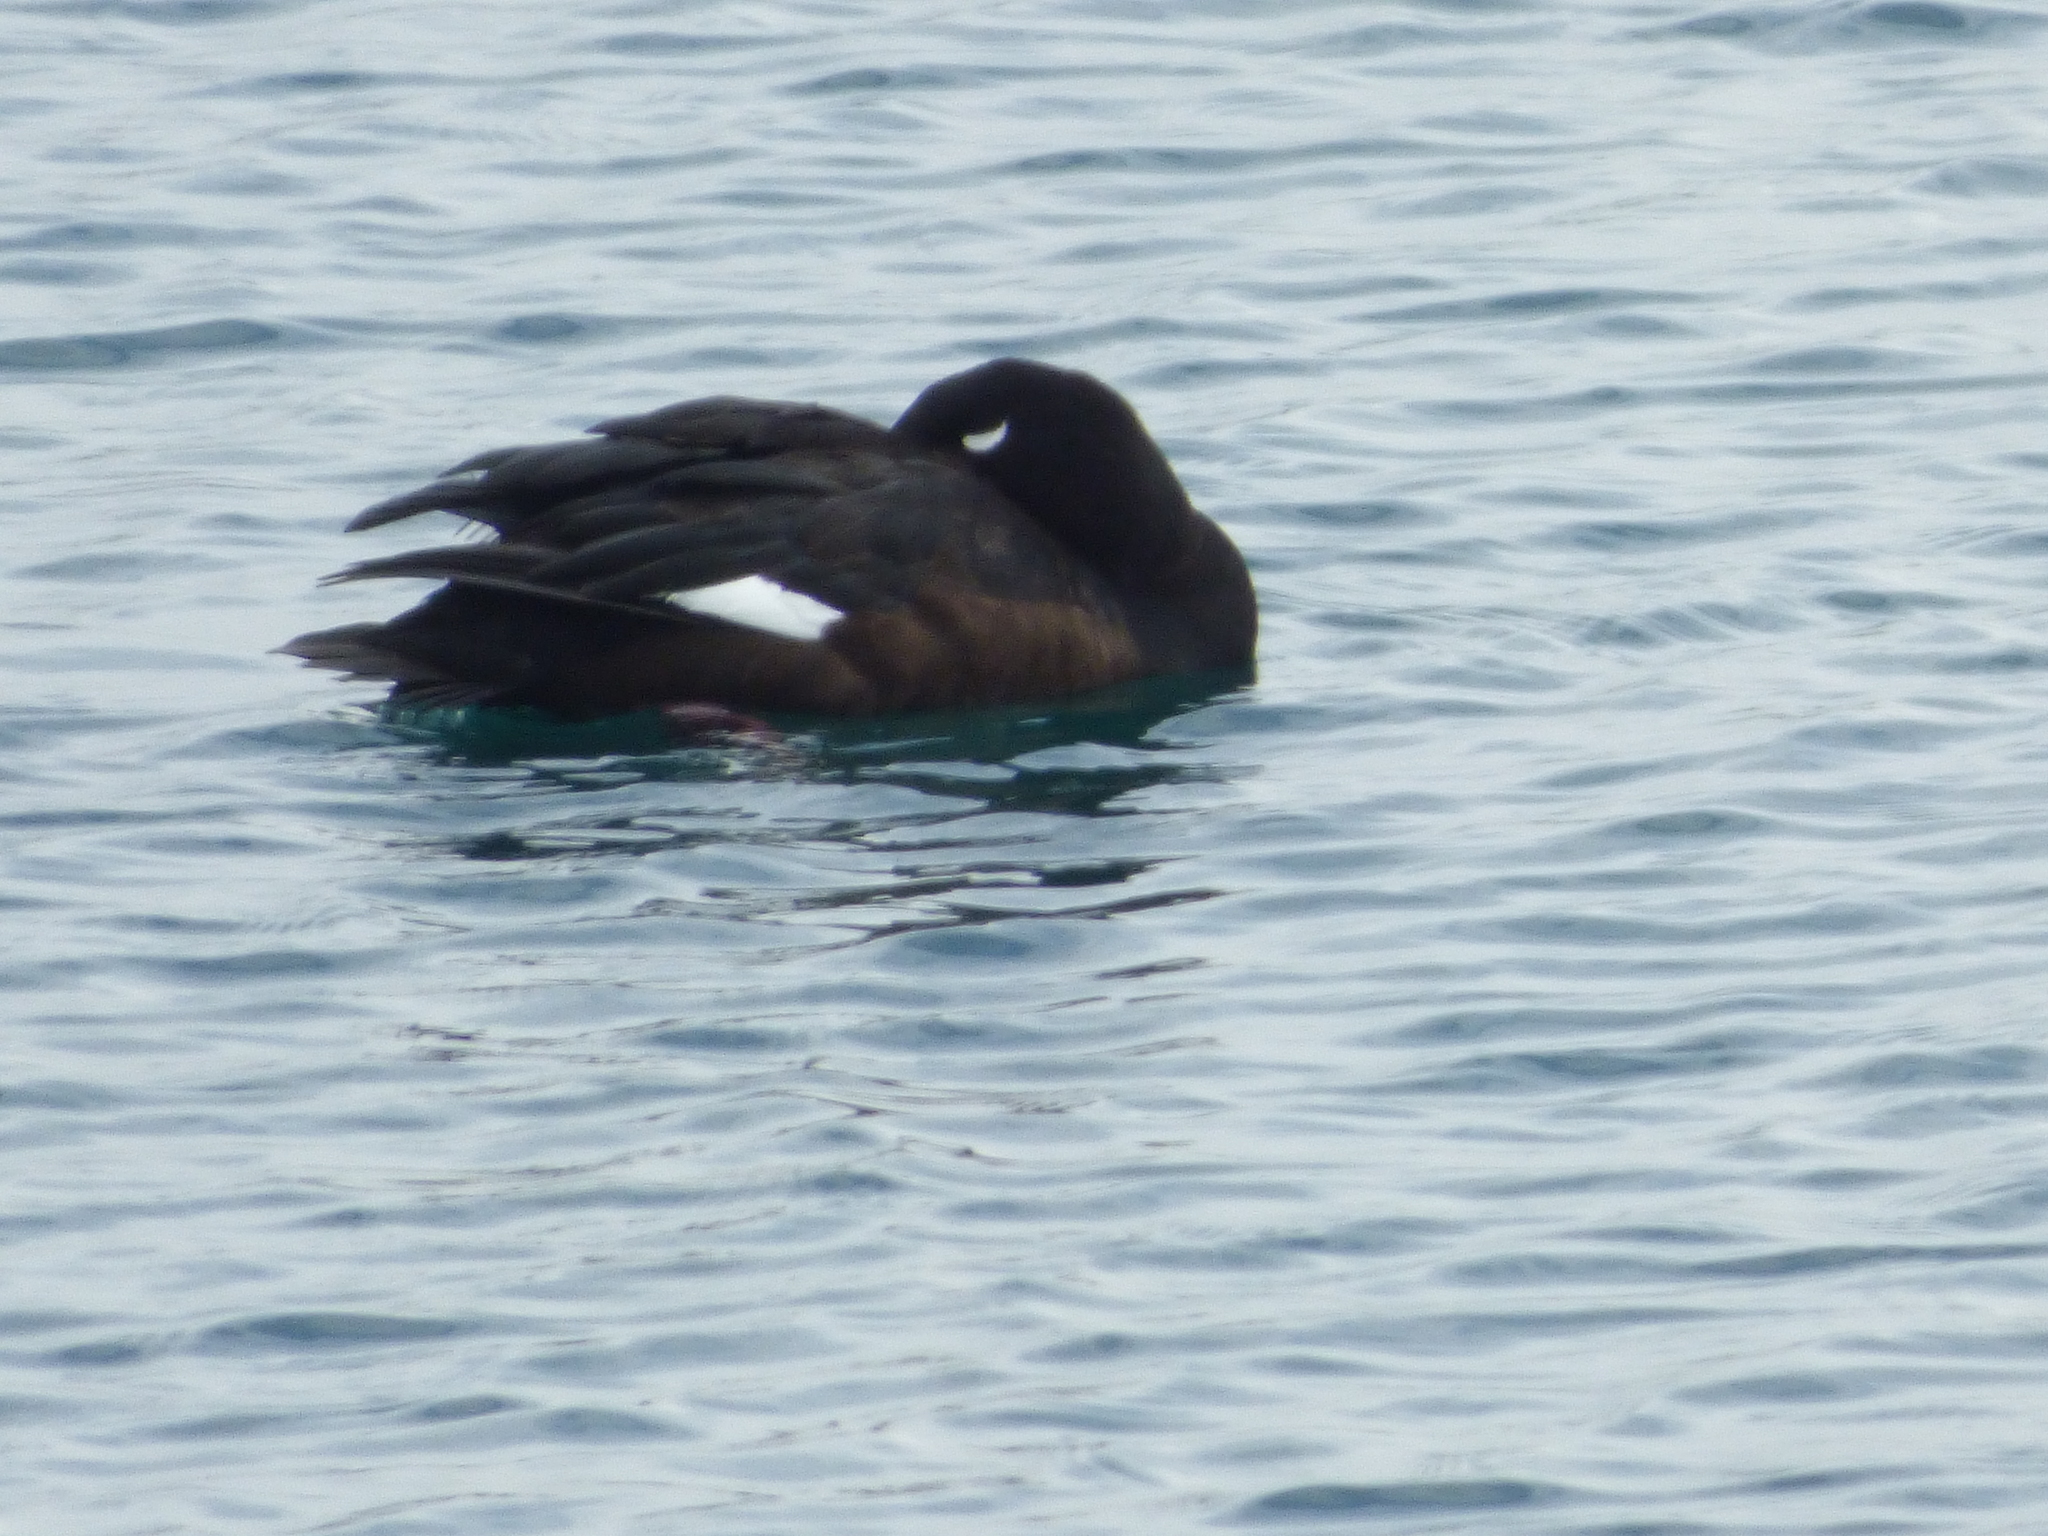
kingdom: Animalia
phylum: Chordata
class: Aves
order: Anseriformes
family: Anatidae
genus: Melanitta
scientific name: Melanitta deglandi
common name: White-winged scoter
